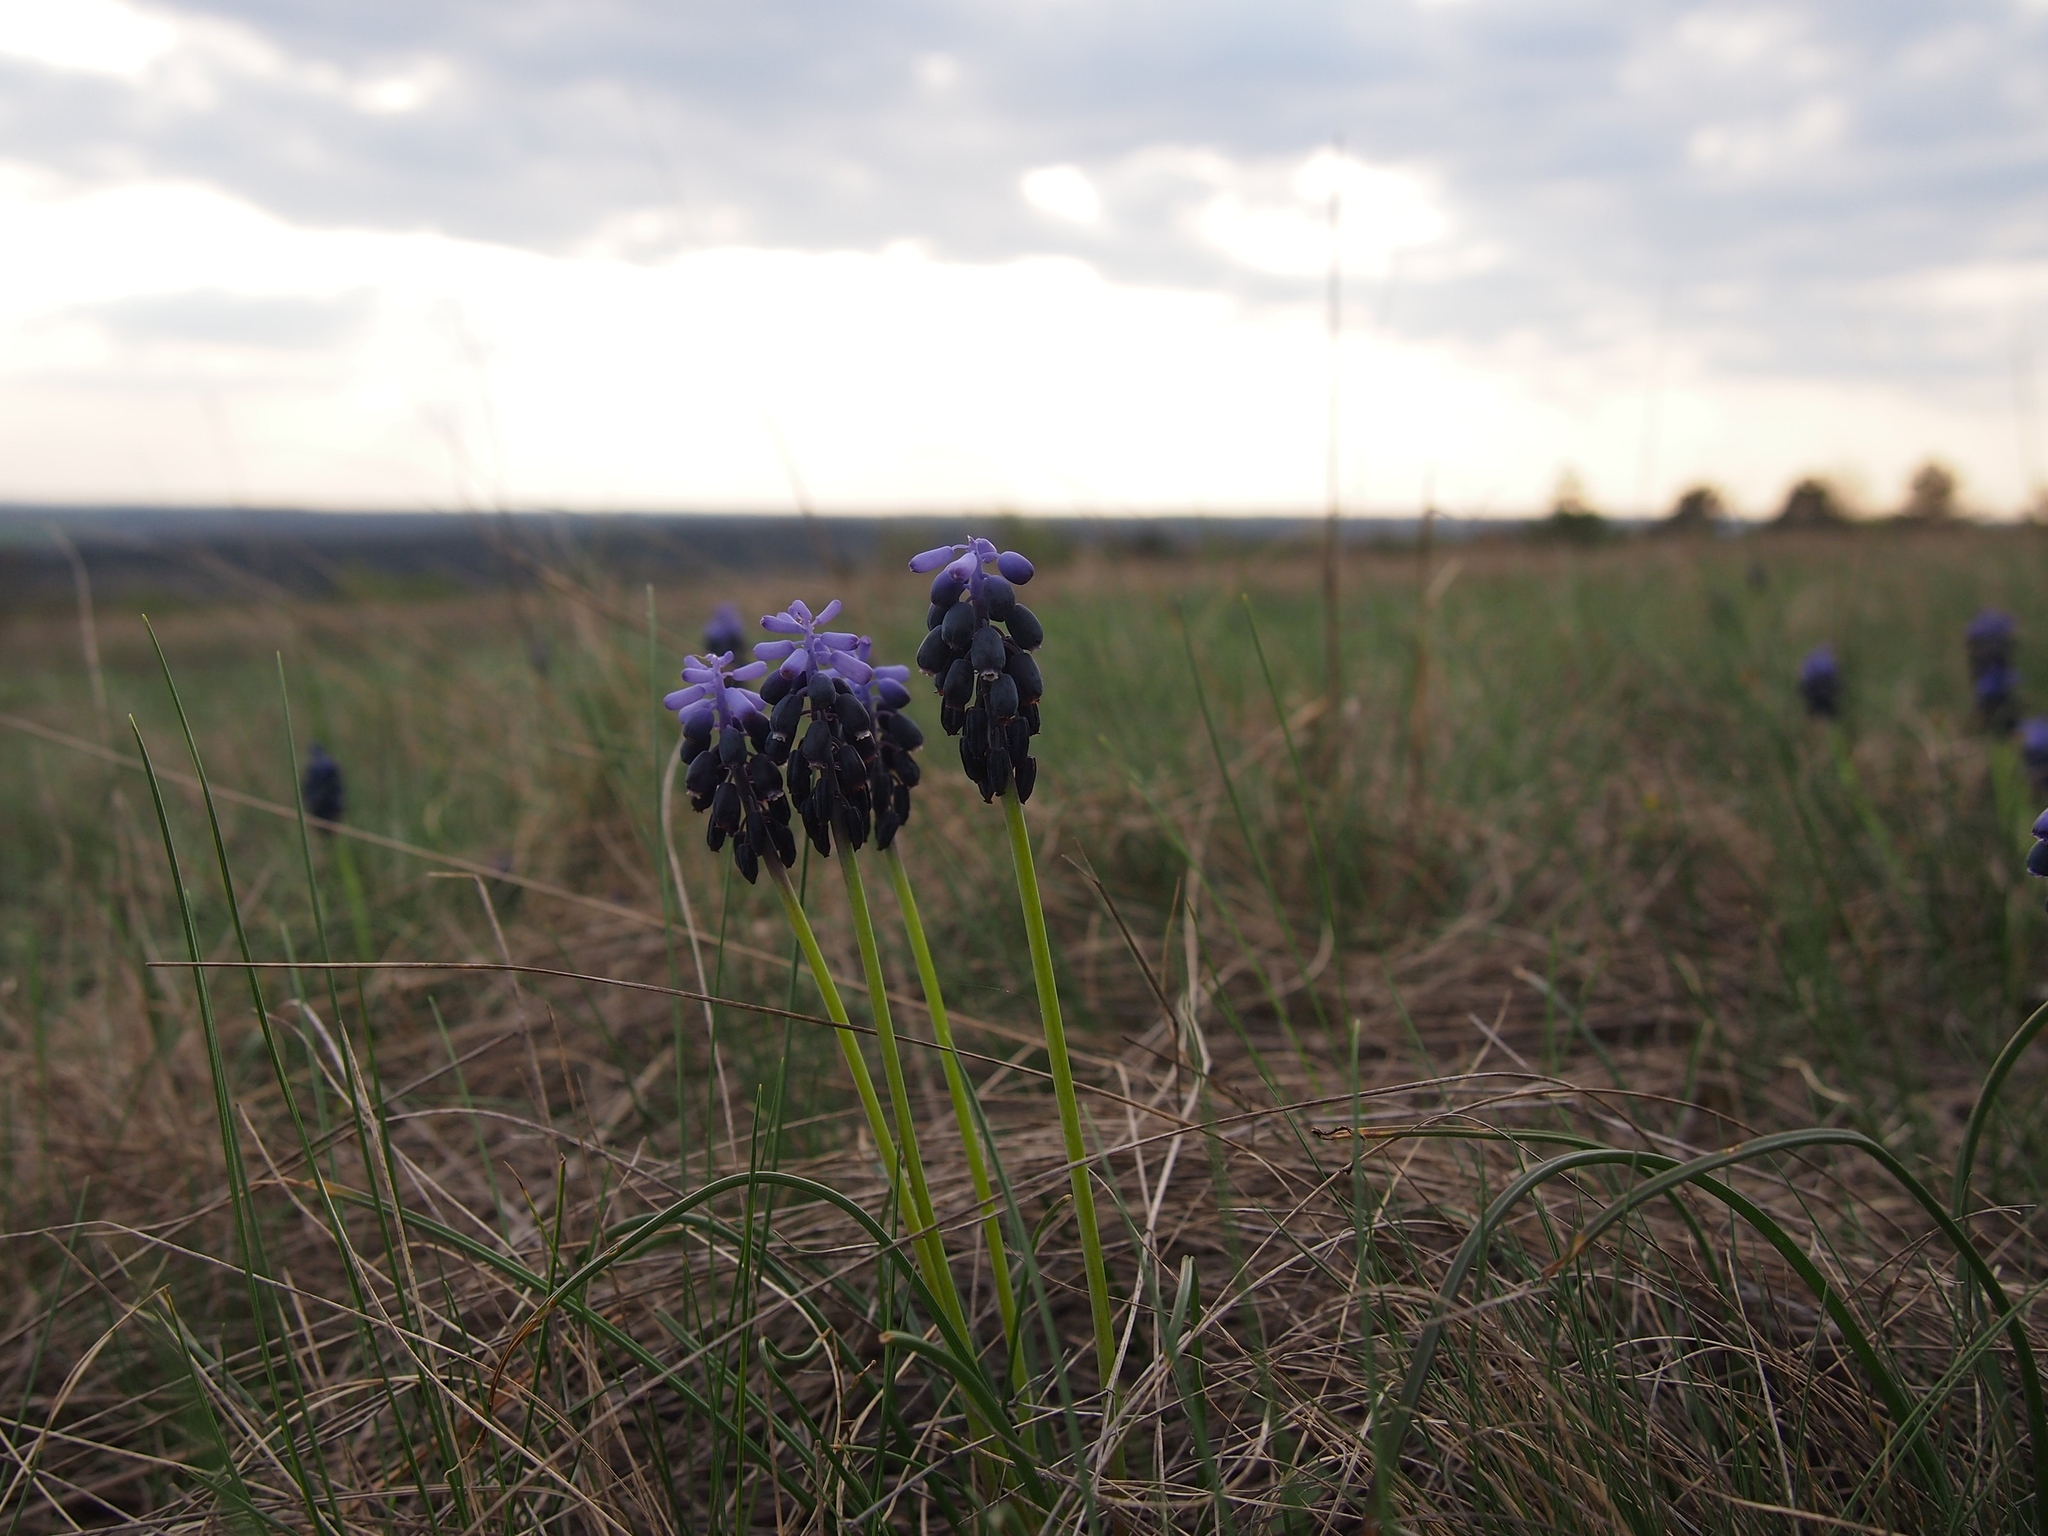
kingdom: Plantae
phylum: Tracheophyta
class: Liliopsida
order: Asparagales
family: Asparagaceae
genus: Muscari
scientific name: Muscari neglectum
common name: Grape-hyacinth
